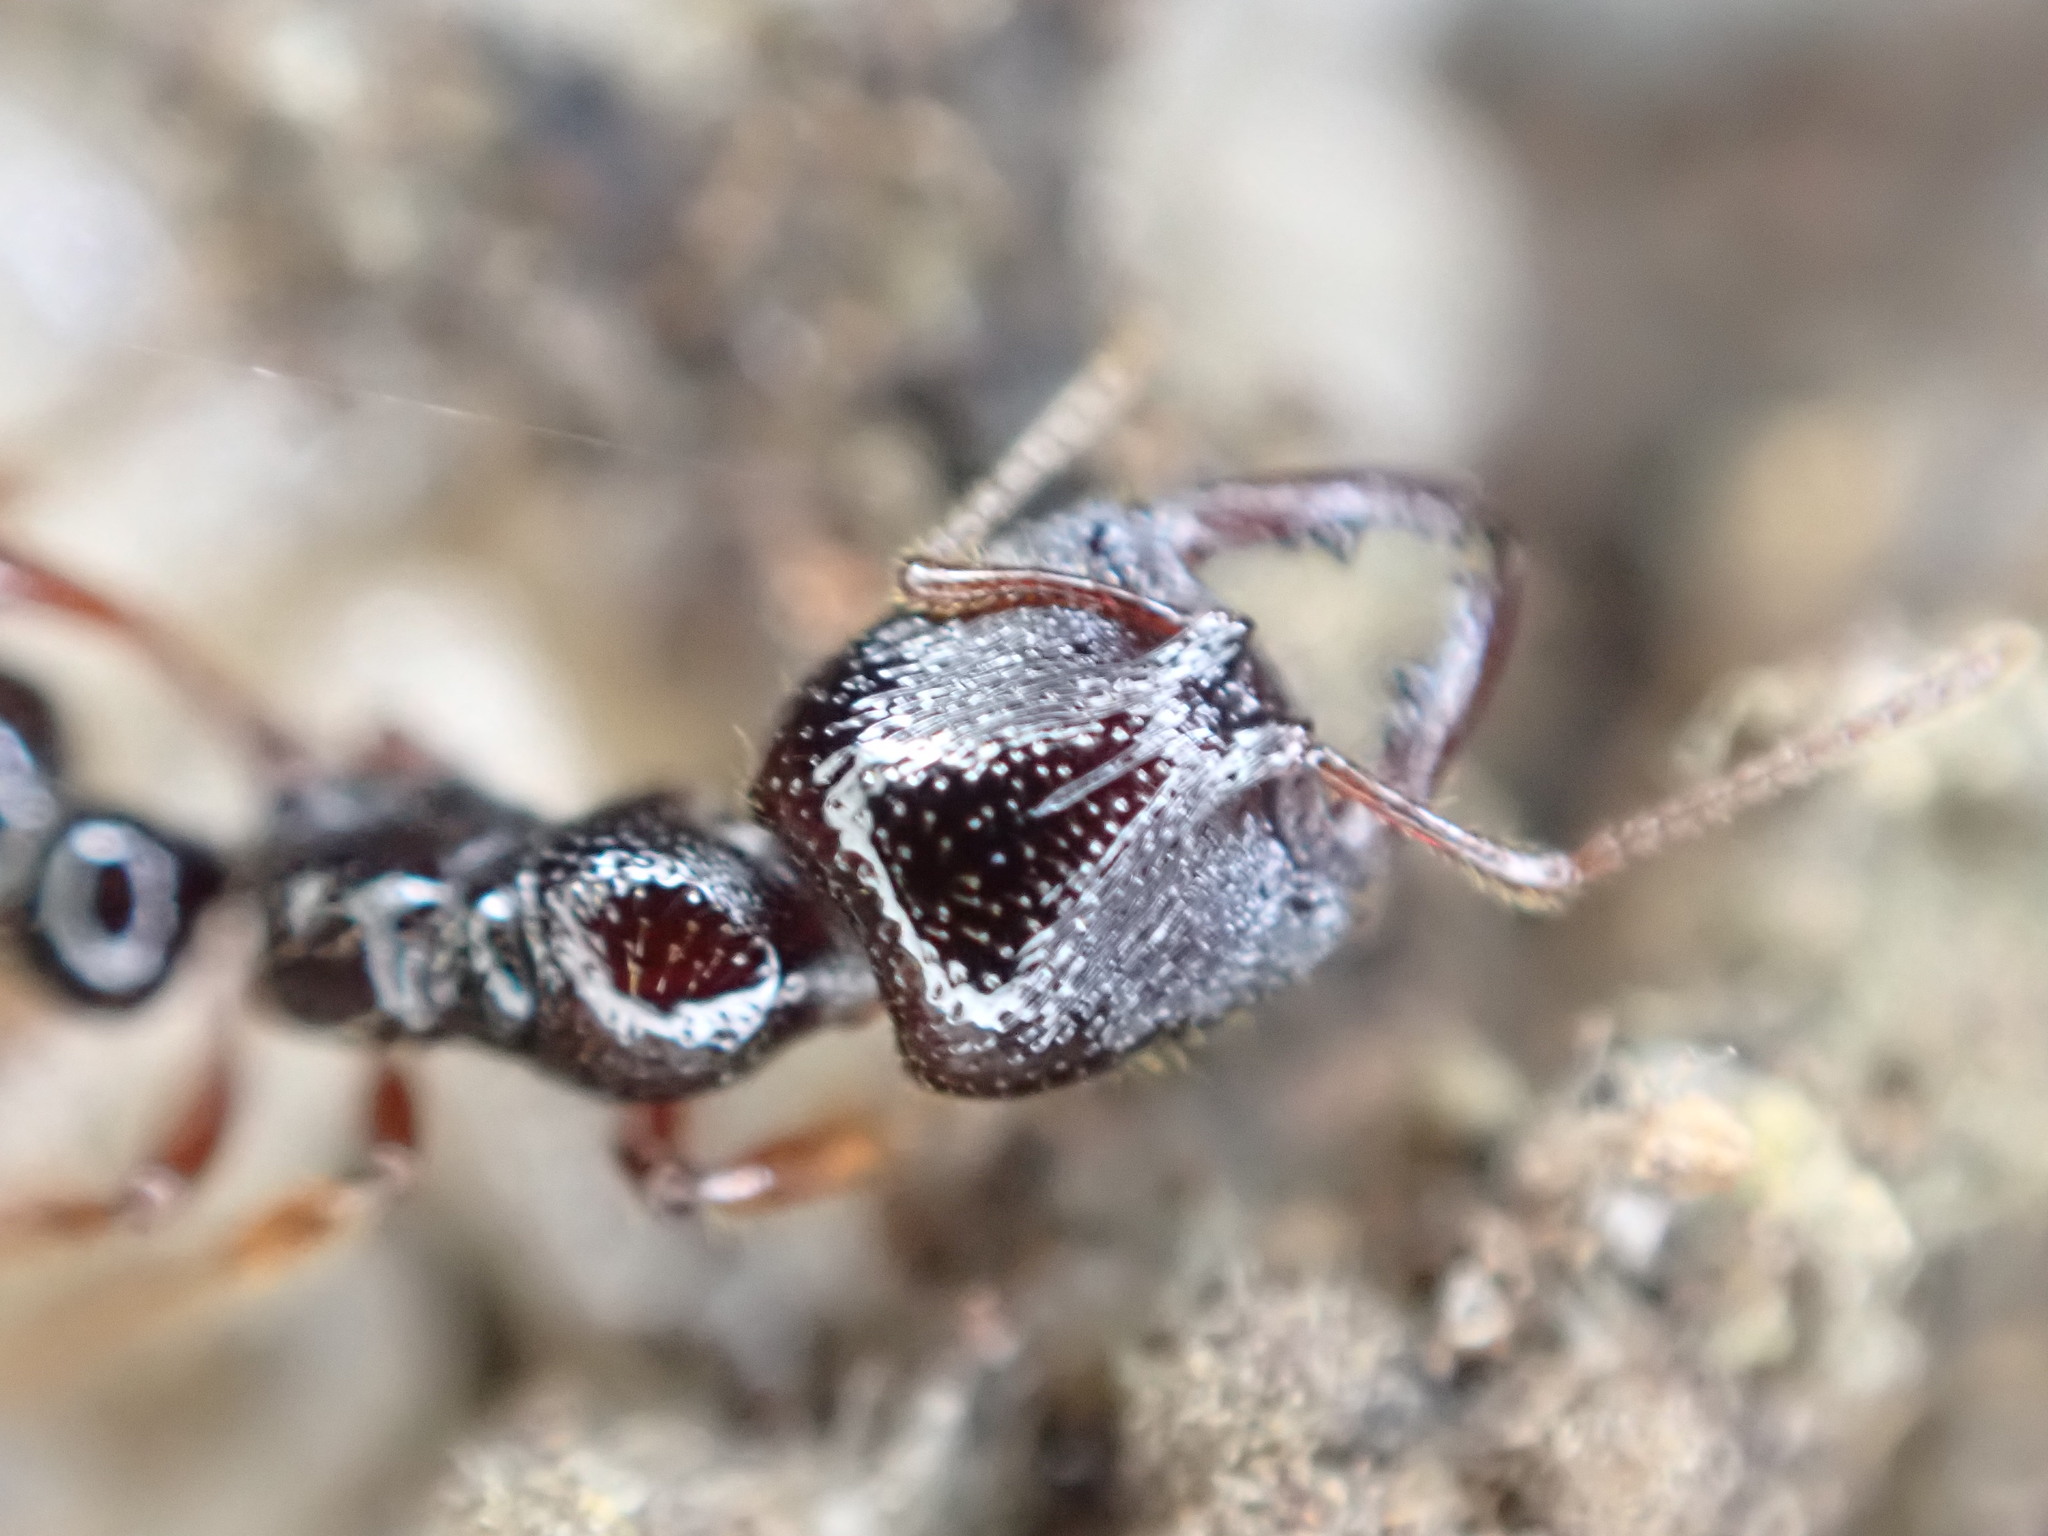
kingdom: Animalia
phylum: Arthropoda
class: Insecta
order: Hymenoptera
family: Formicidae
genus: Amblyopone
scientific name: Amblyopone australis
